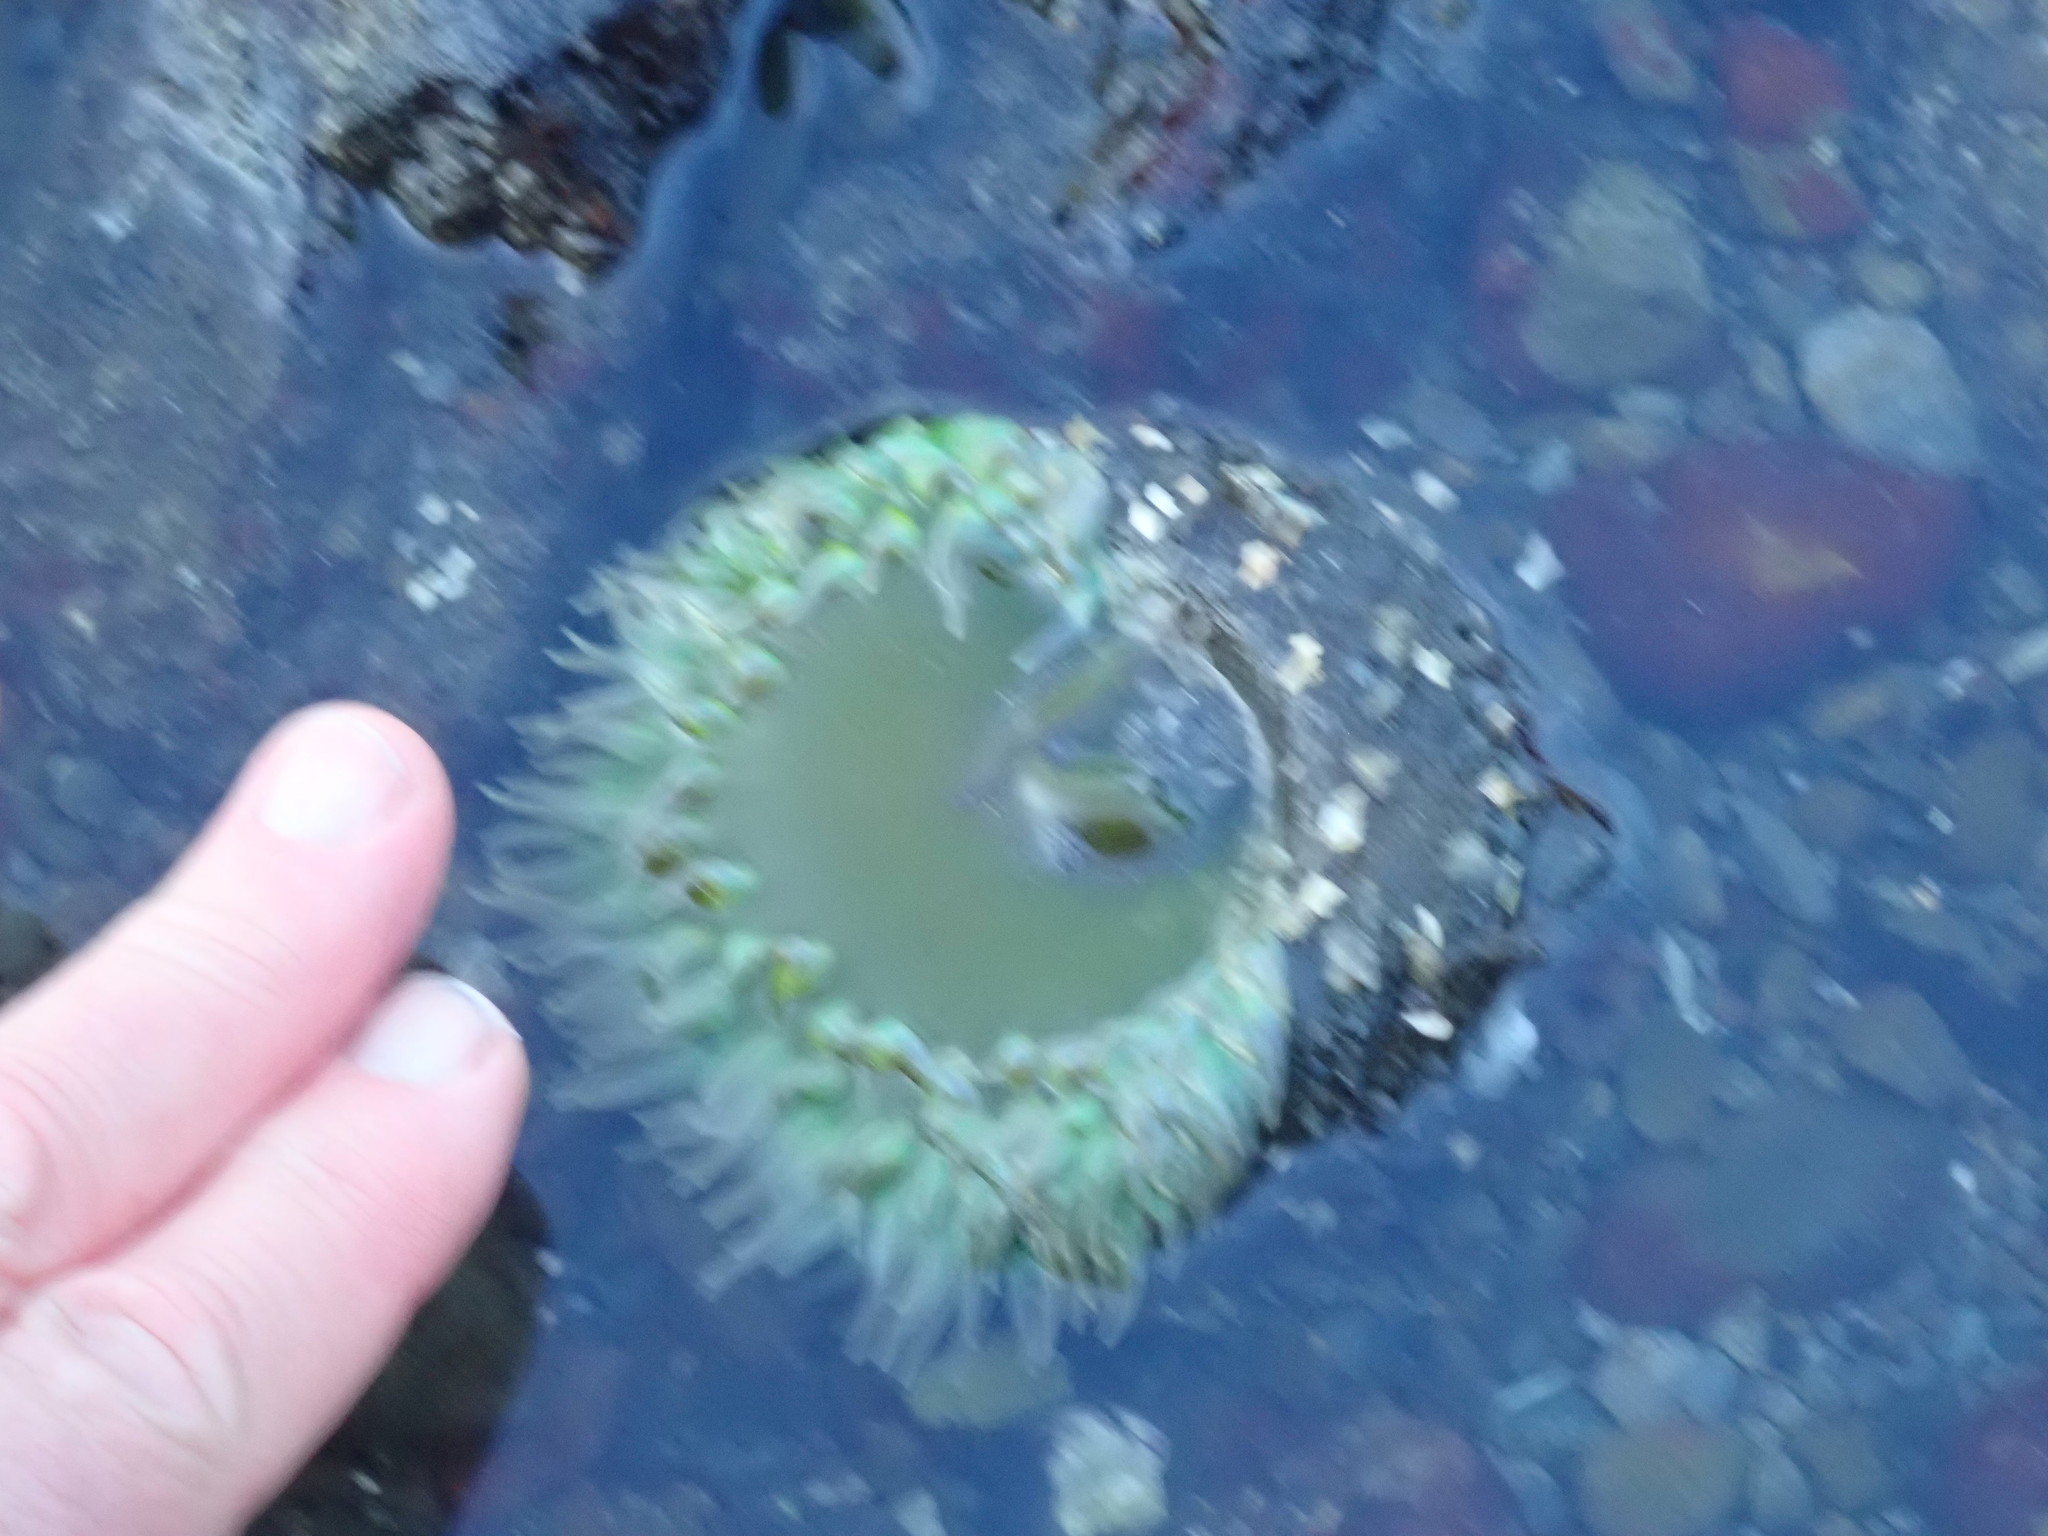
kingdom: Animalia
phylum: Cnidaria
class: Anthozoa
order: Actiniaria
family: Actiniidae
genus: Anthopleura
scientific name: Anthopleura xanthogrammica
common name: Giant green anemone
